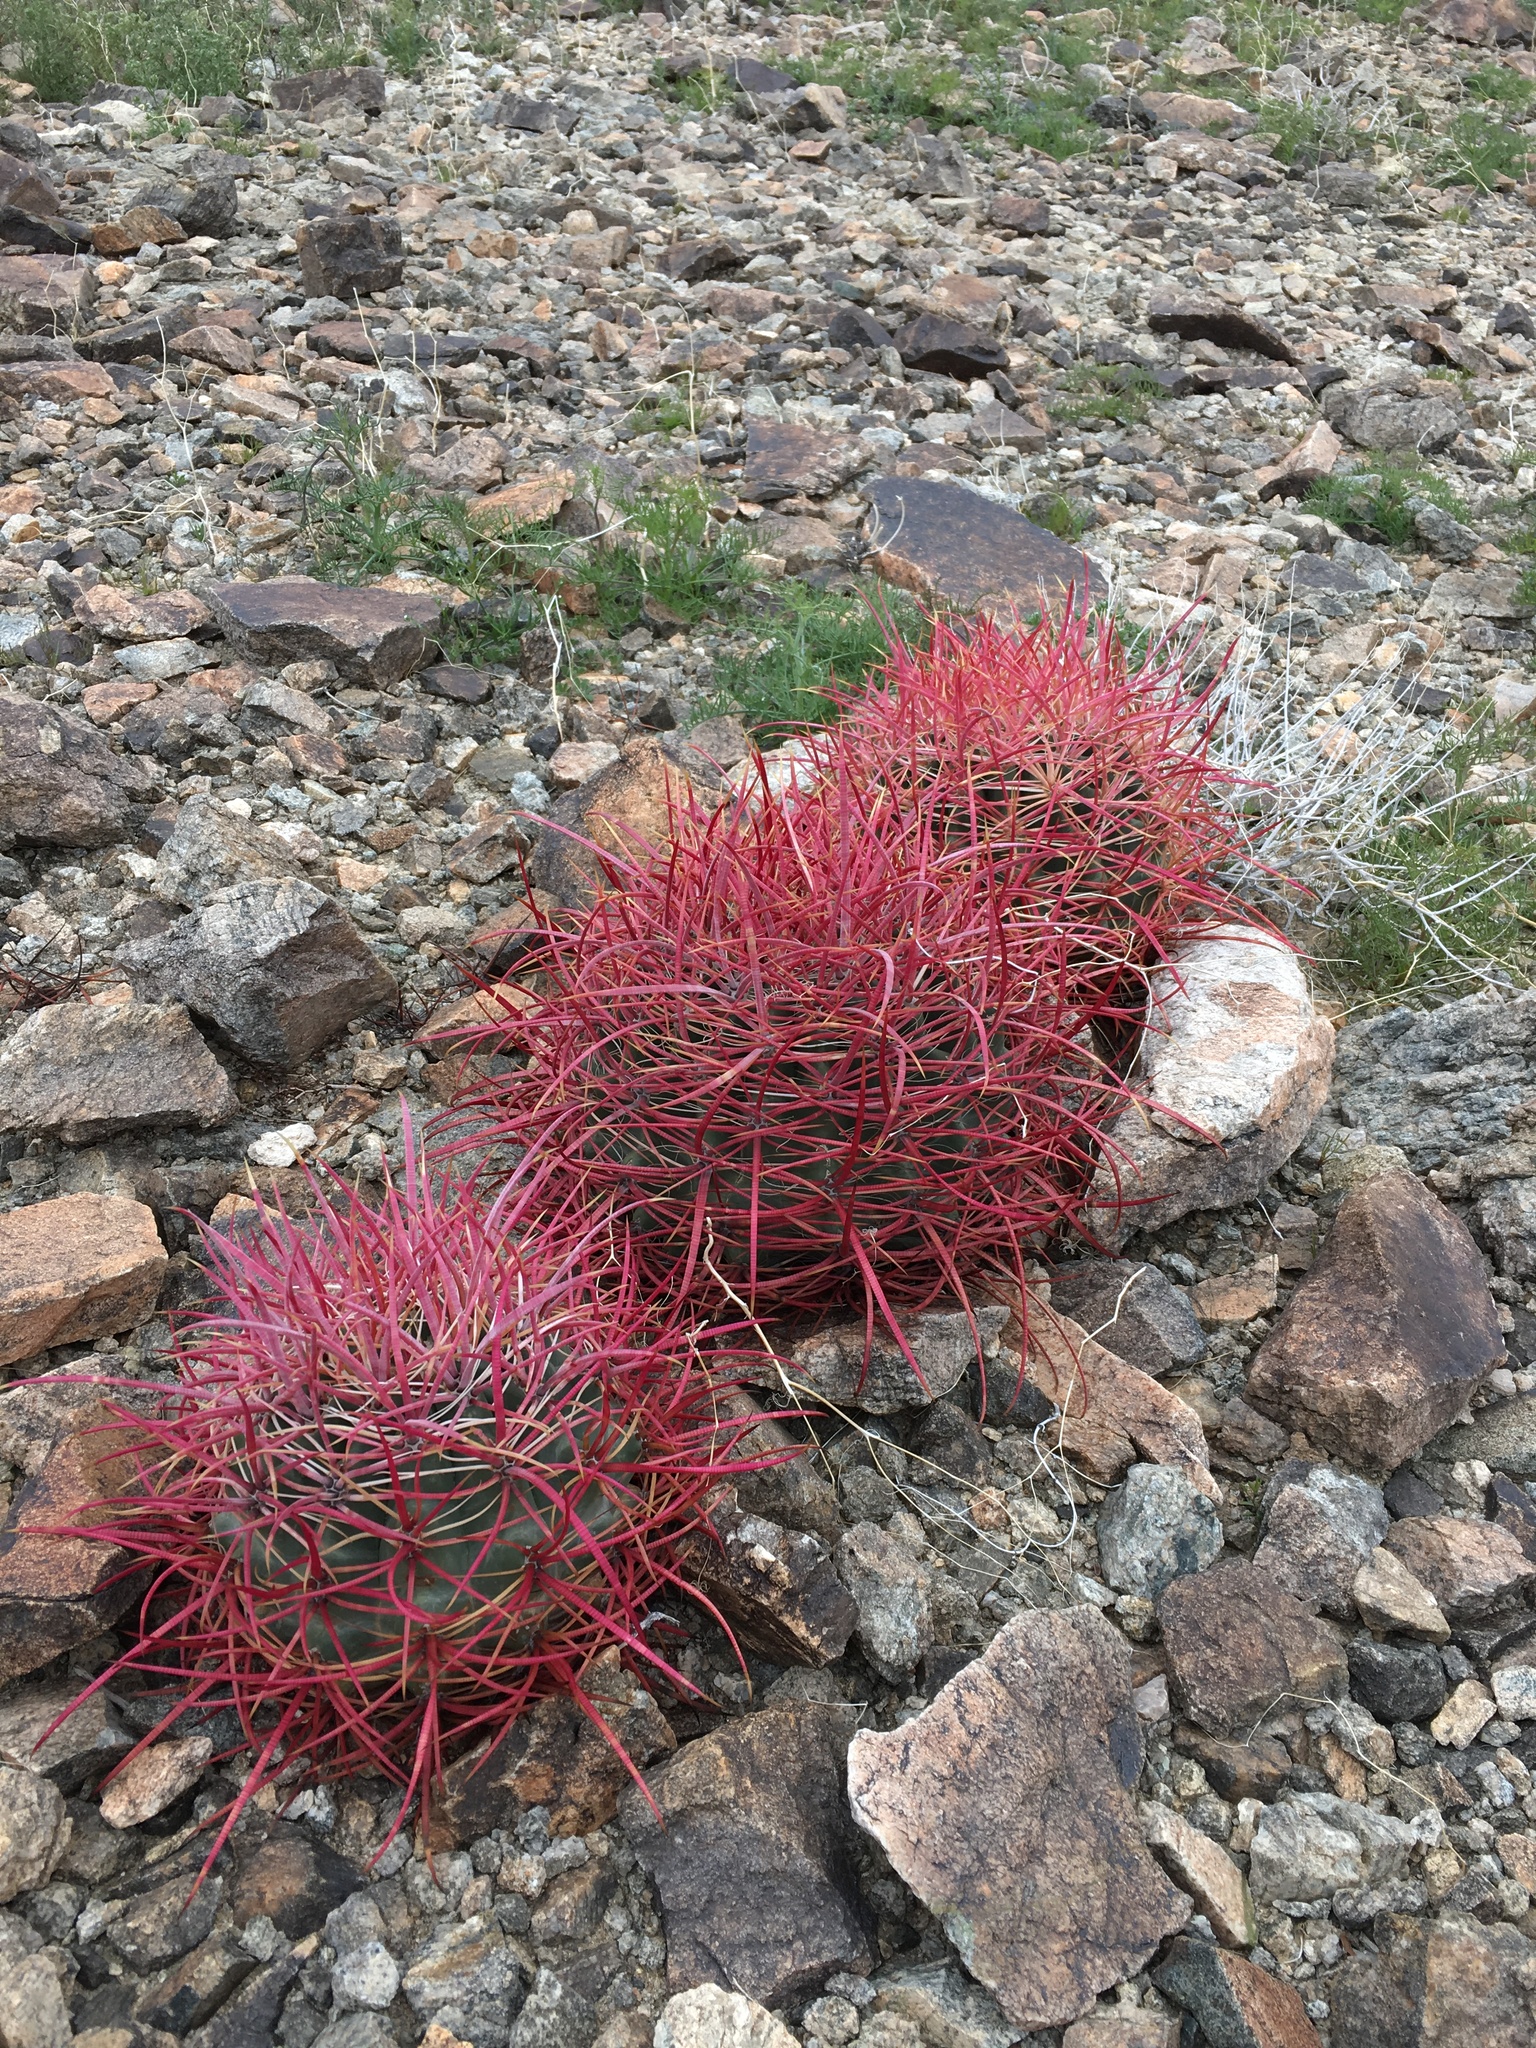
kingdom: Plantae
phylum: Tracheophyta
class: Magnoliopsida
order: Caryophyllales
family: Cactaceae
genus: Ferocactus
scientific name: Ferocactus cylindraceus
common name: California barrel cactus
